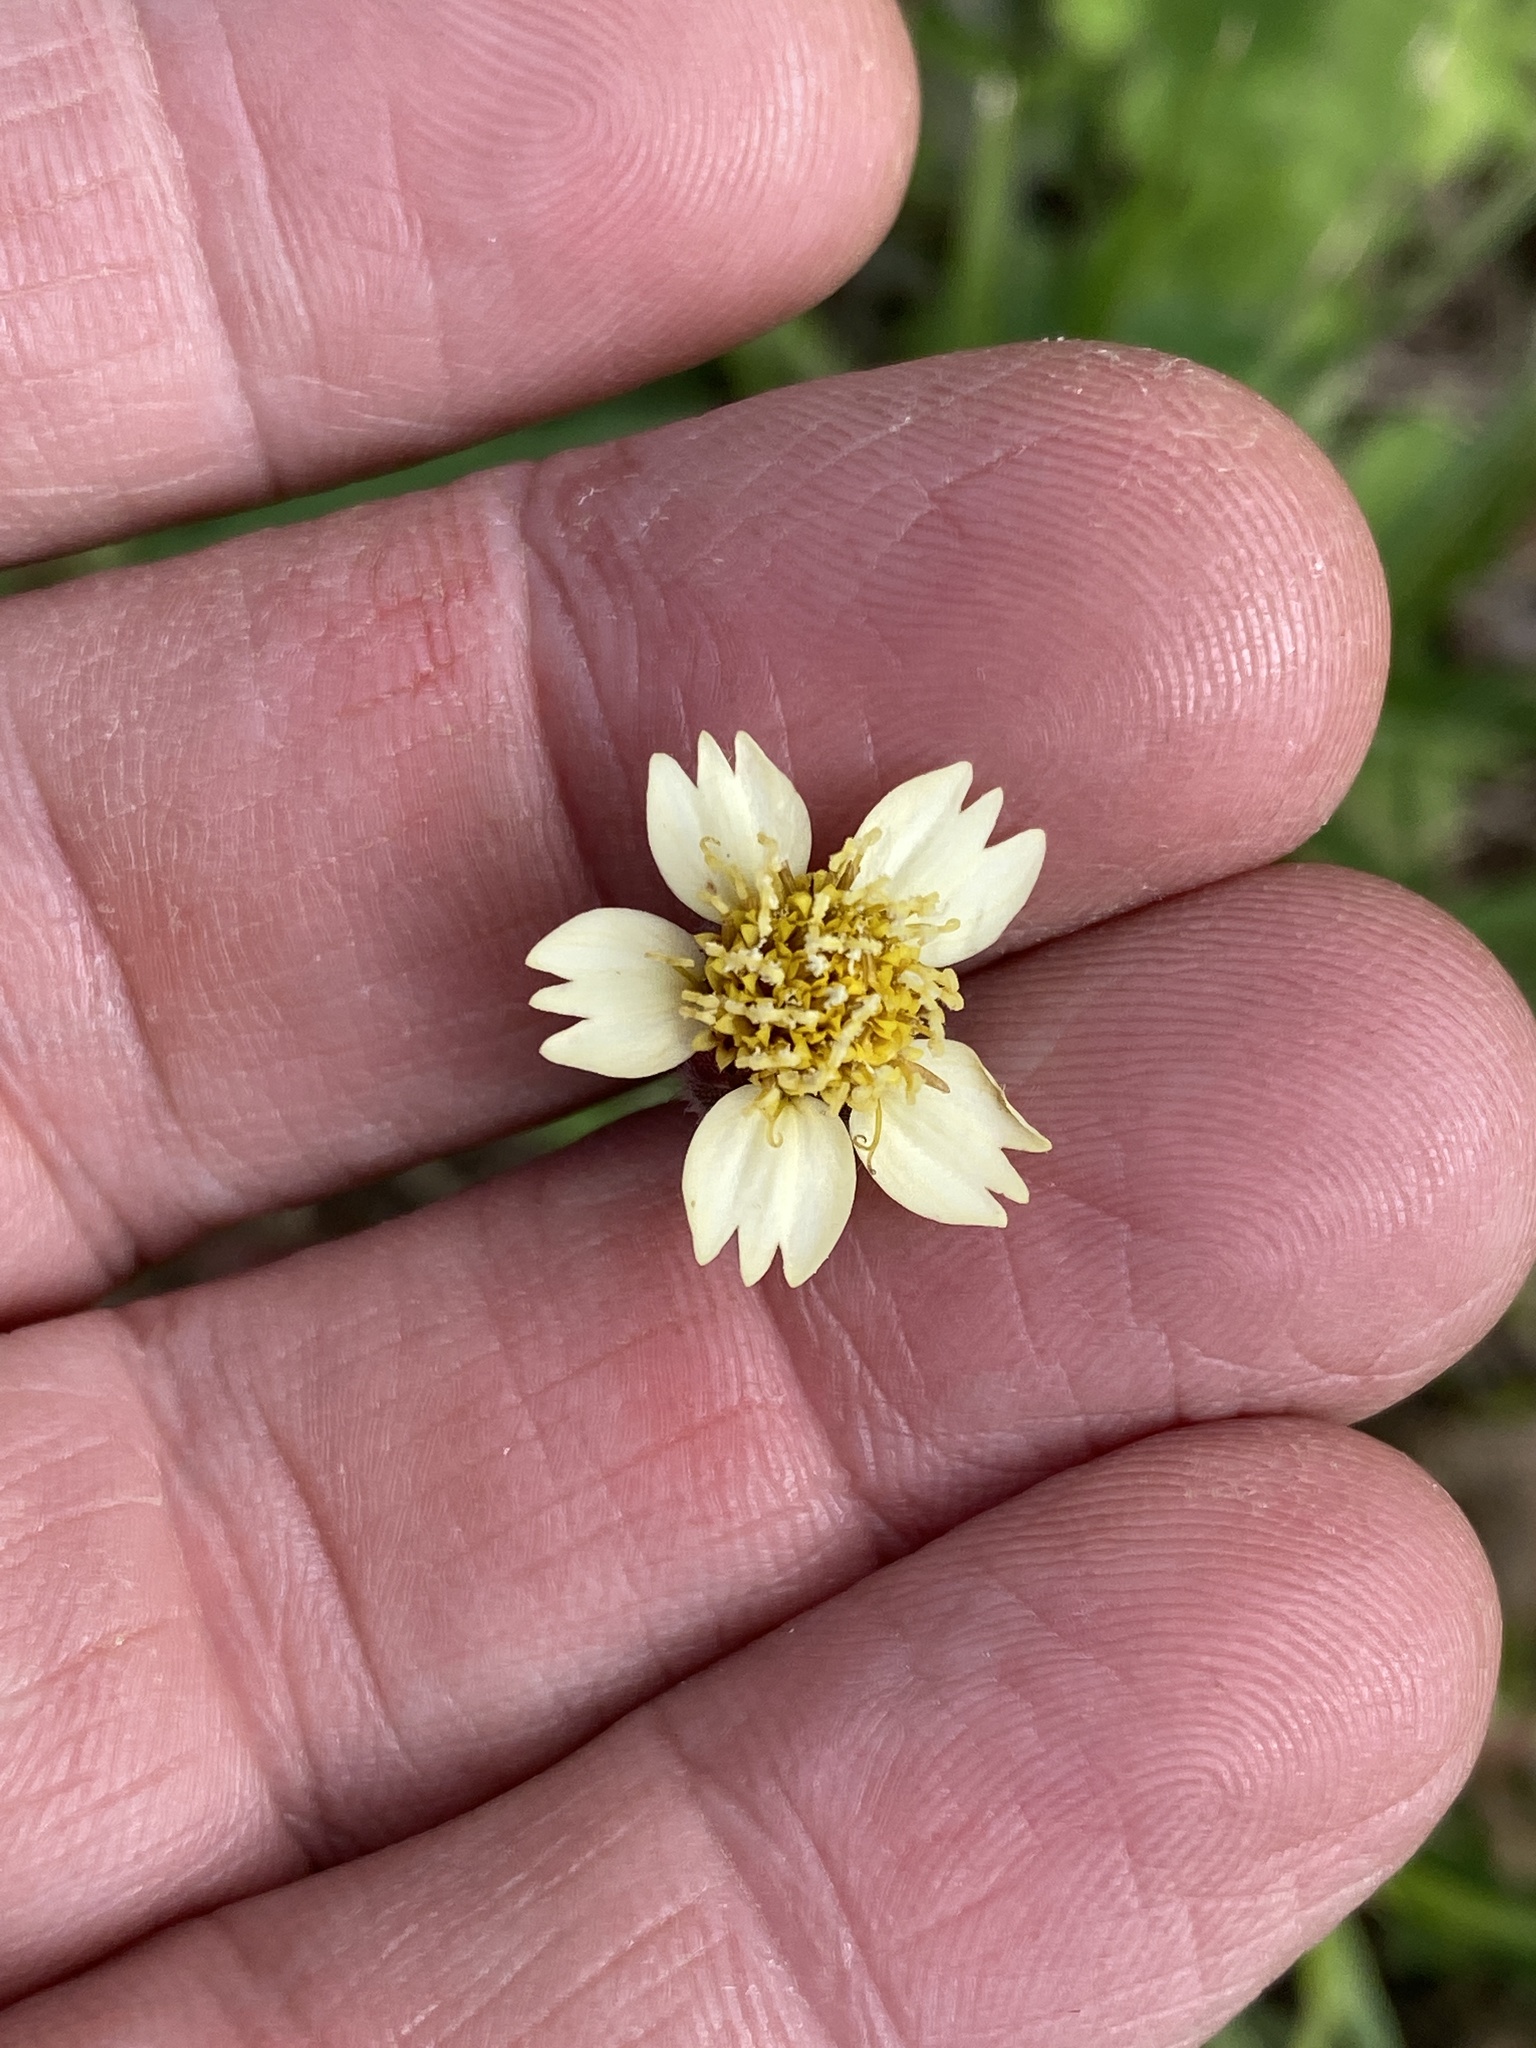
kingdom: Plantae
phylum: Tracheophyta
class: Magnoliopsida
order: Asterales
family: Asteraceae
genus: Tridax
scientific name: Tridax procumbens
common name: Coatbuttons
